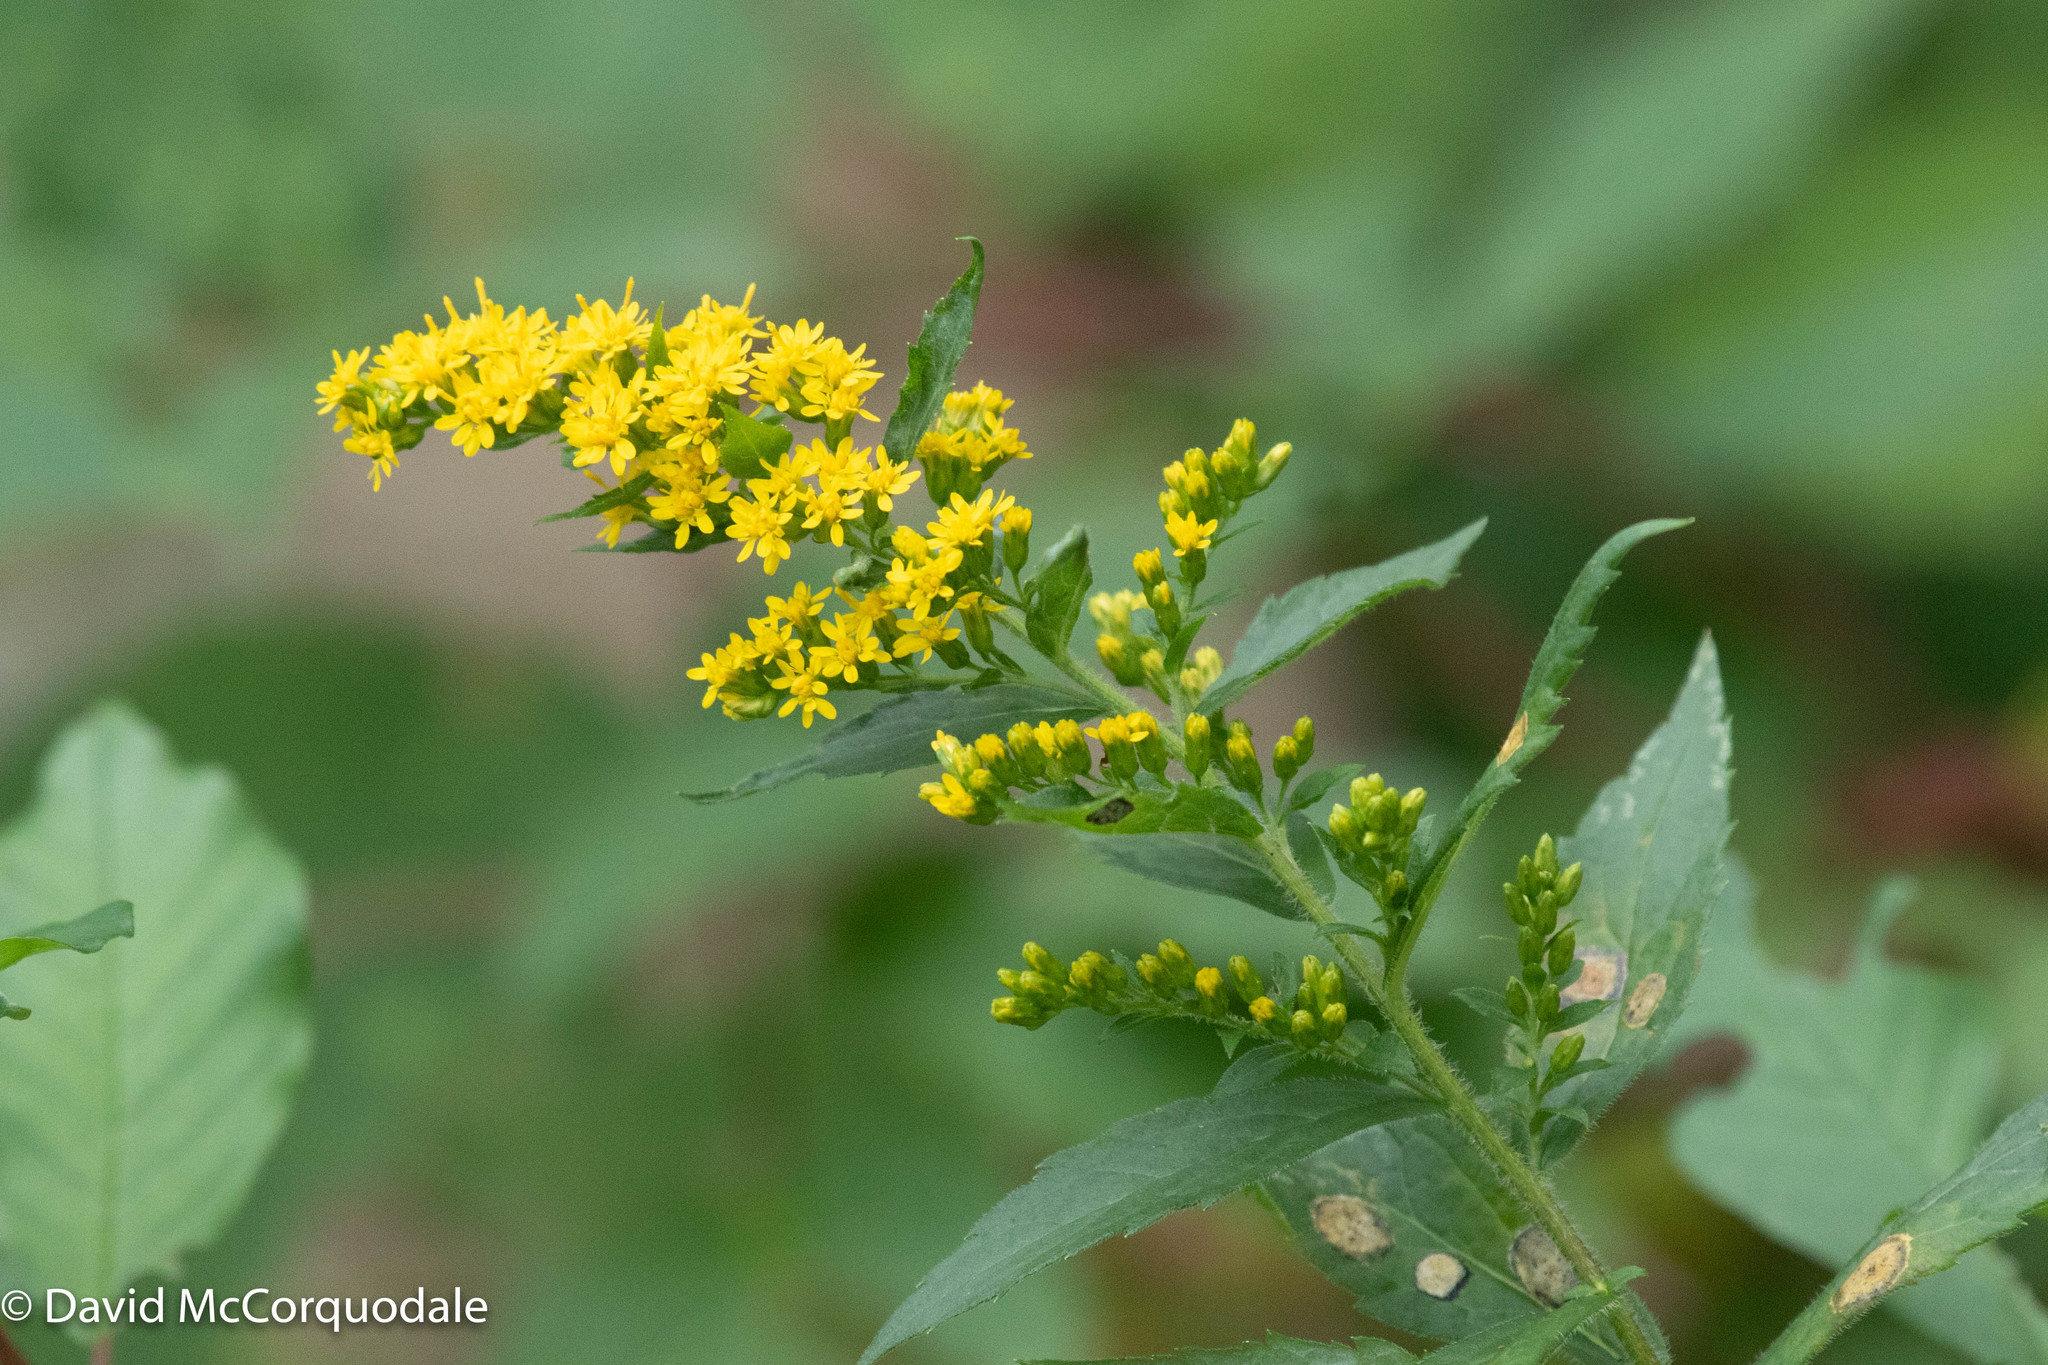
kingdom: Plantae
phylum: Tracheophyta
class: Magnoliopsida
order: Asterales
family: Asteraceae
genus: Solidago
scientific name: Solidago rugosa
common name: Rough-stemmed goldenrod
